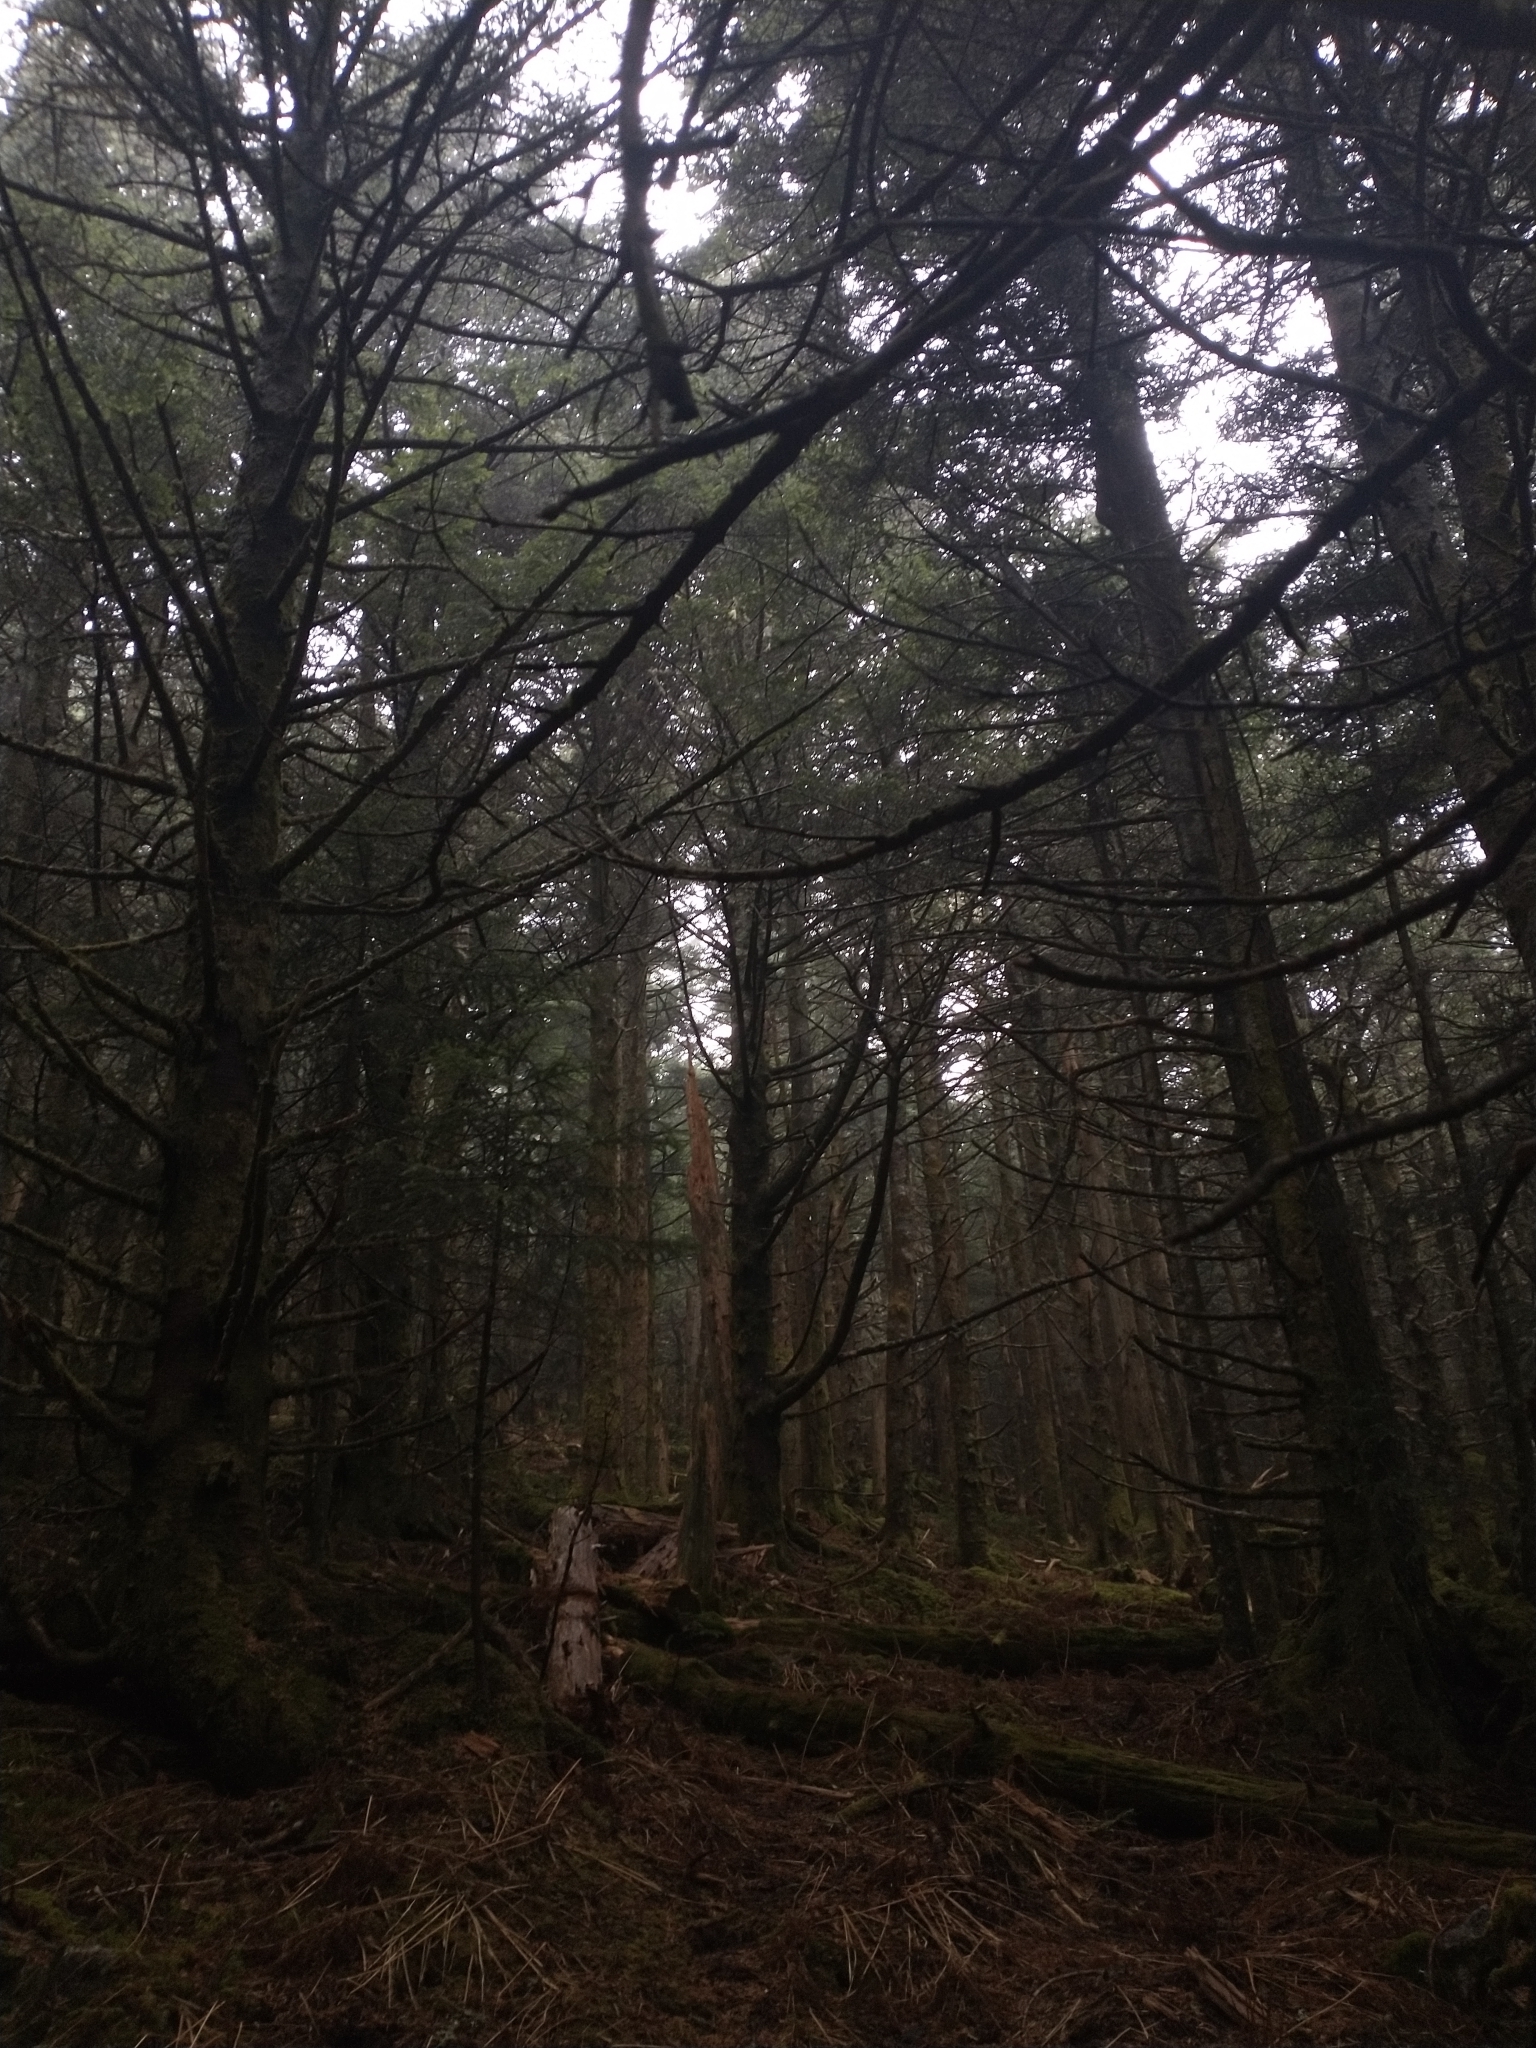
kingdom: Plantae
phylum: Tracheophyta
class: Pinopsida
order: Pinales
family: Pinaceae
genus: Abies
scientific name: Abies fraseri
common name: Fraser fir
